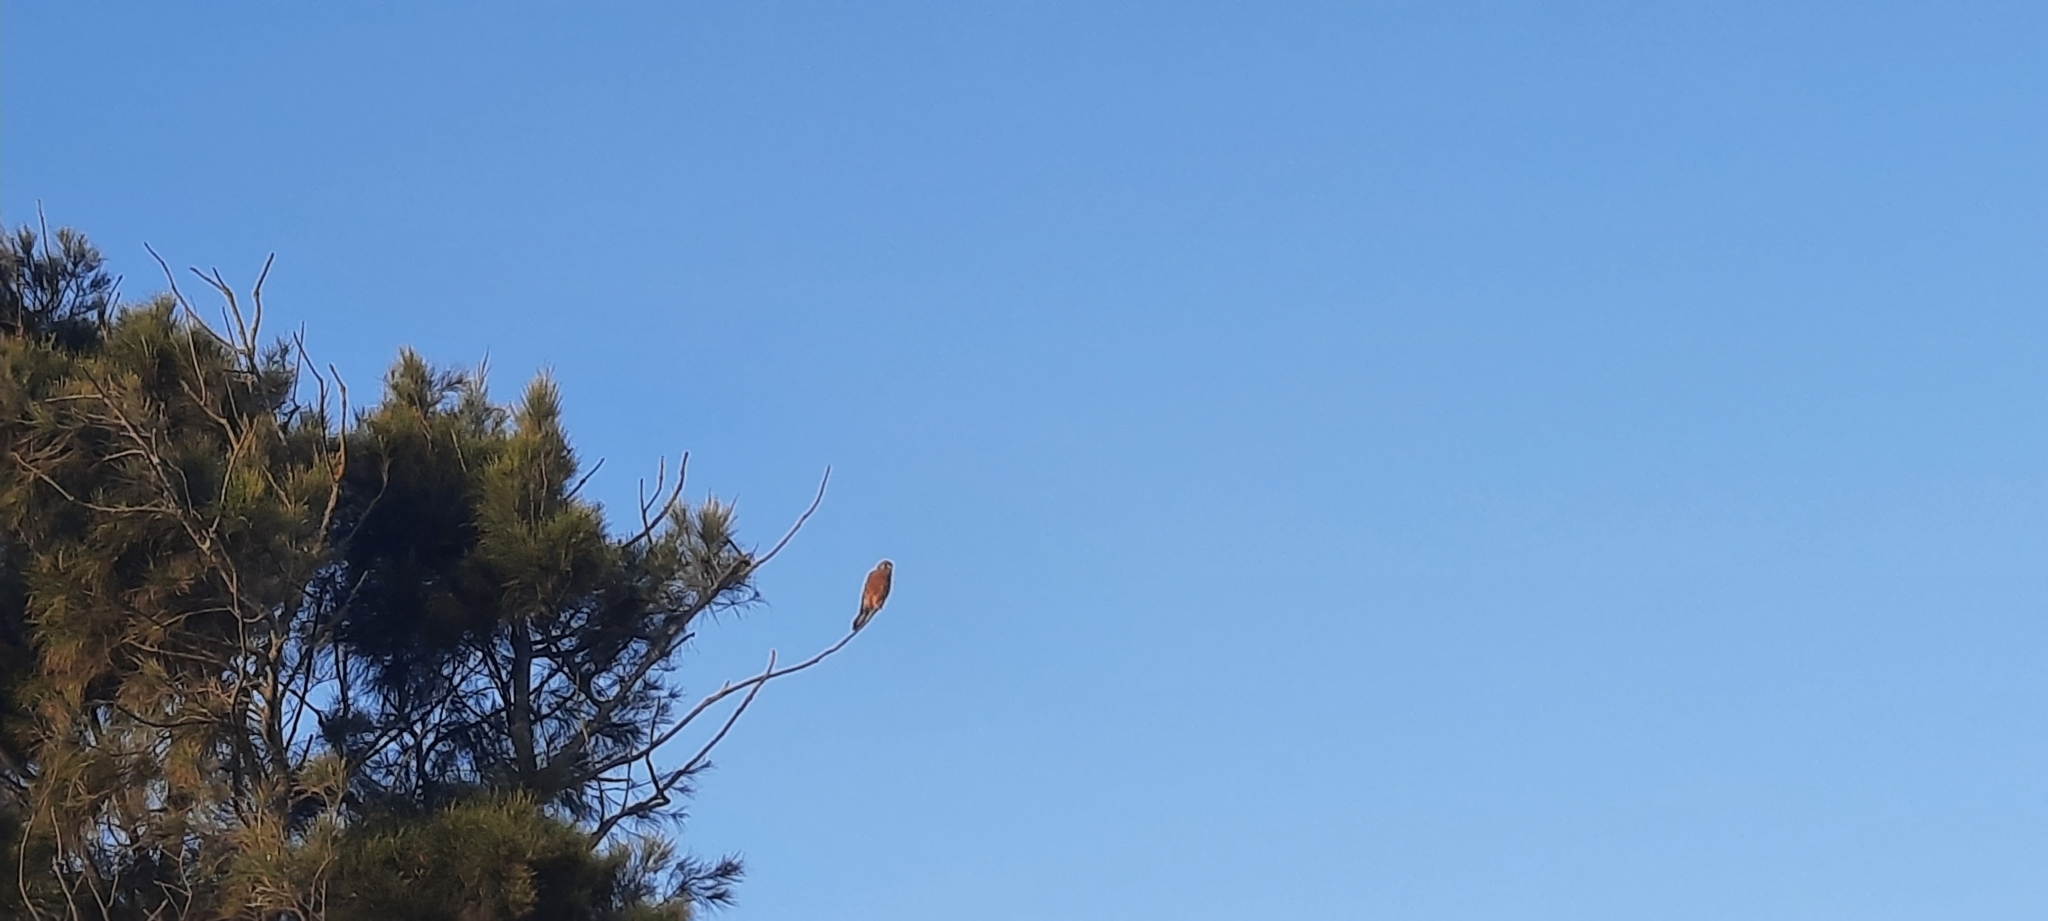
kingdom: Animalia
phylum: Chordata
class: Aves
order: Falconiformes
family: Falconidae
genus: Falco
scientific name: Falco rupicolus
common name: Rock kestrel
